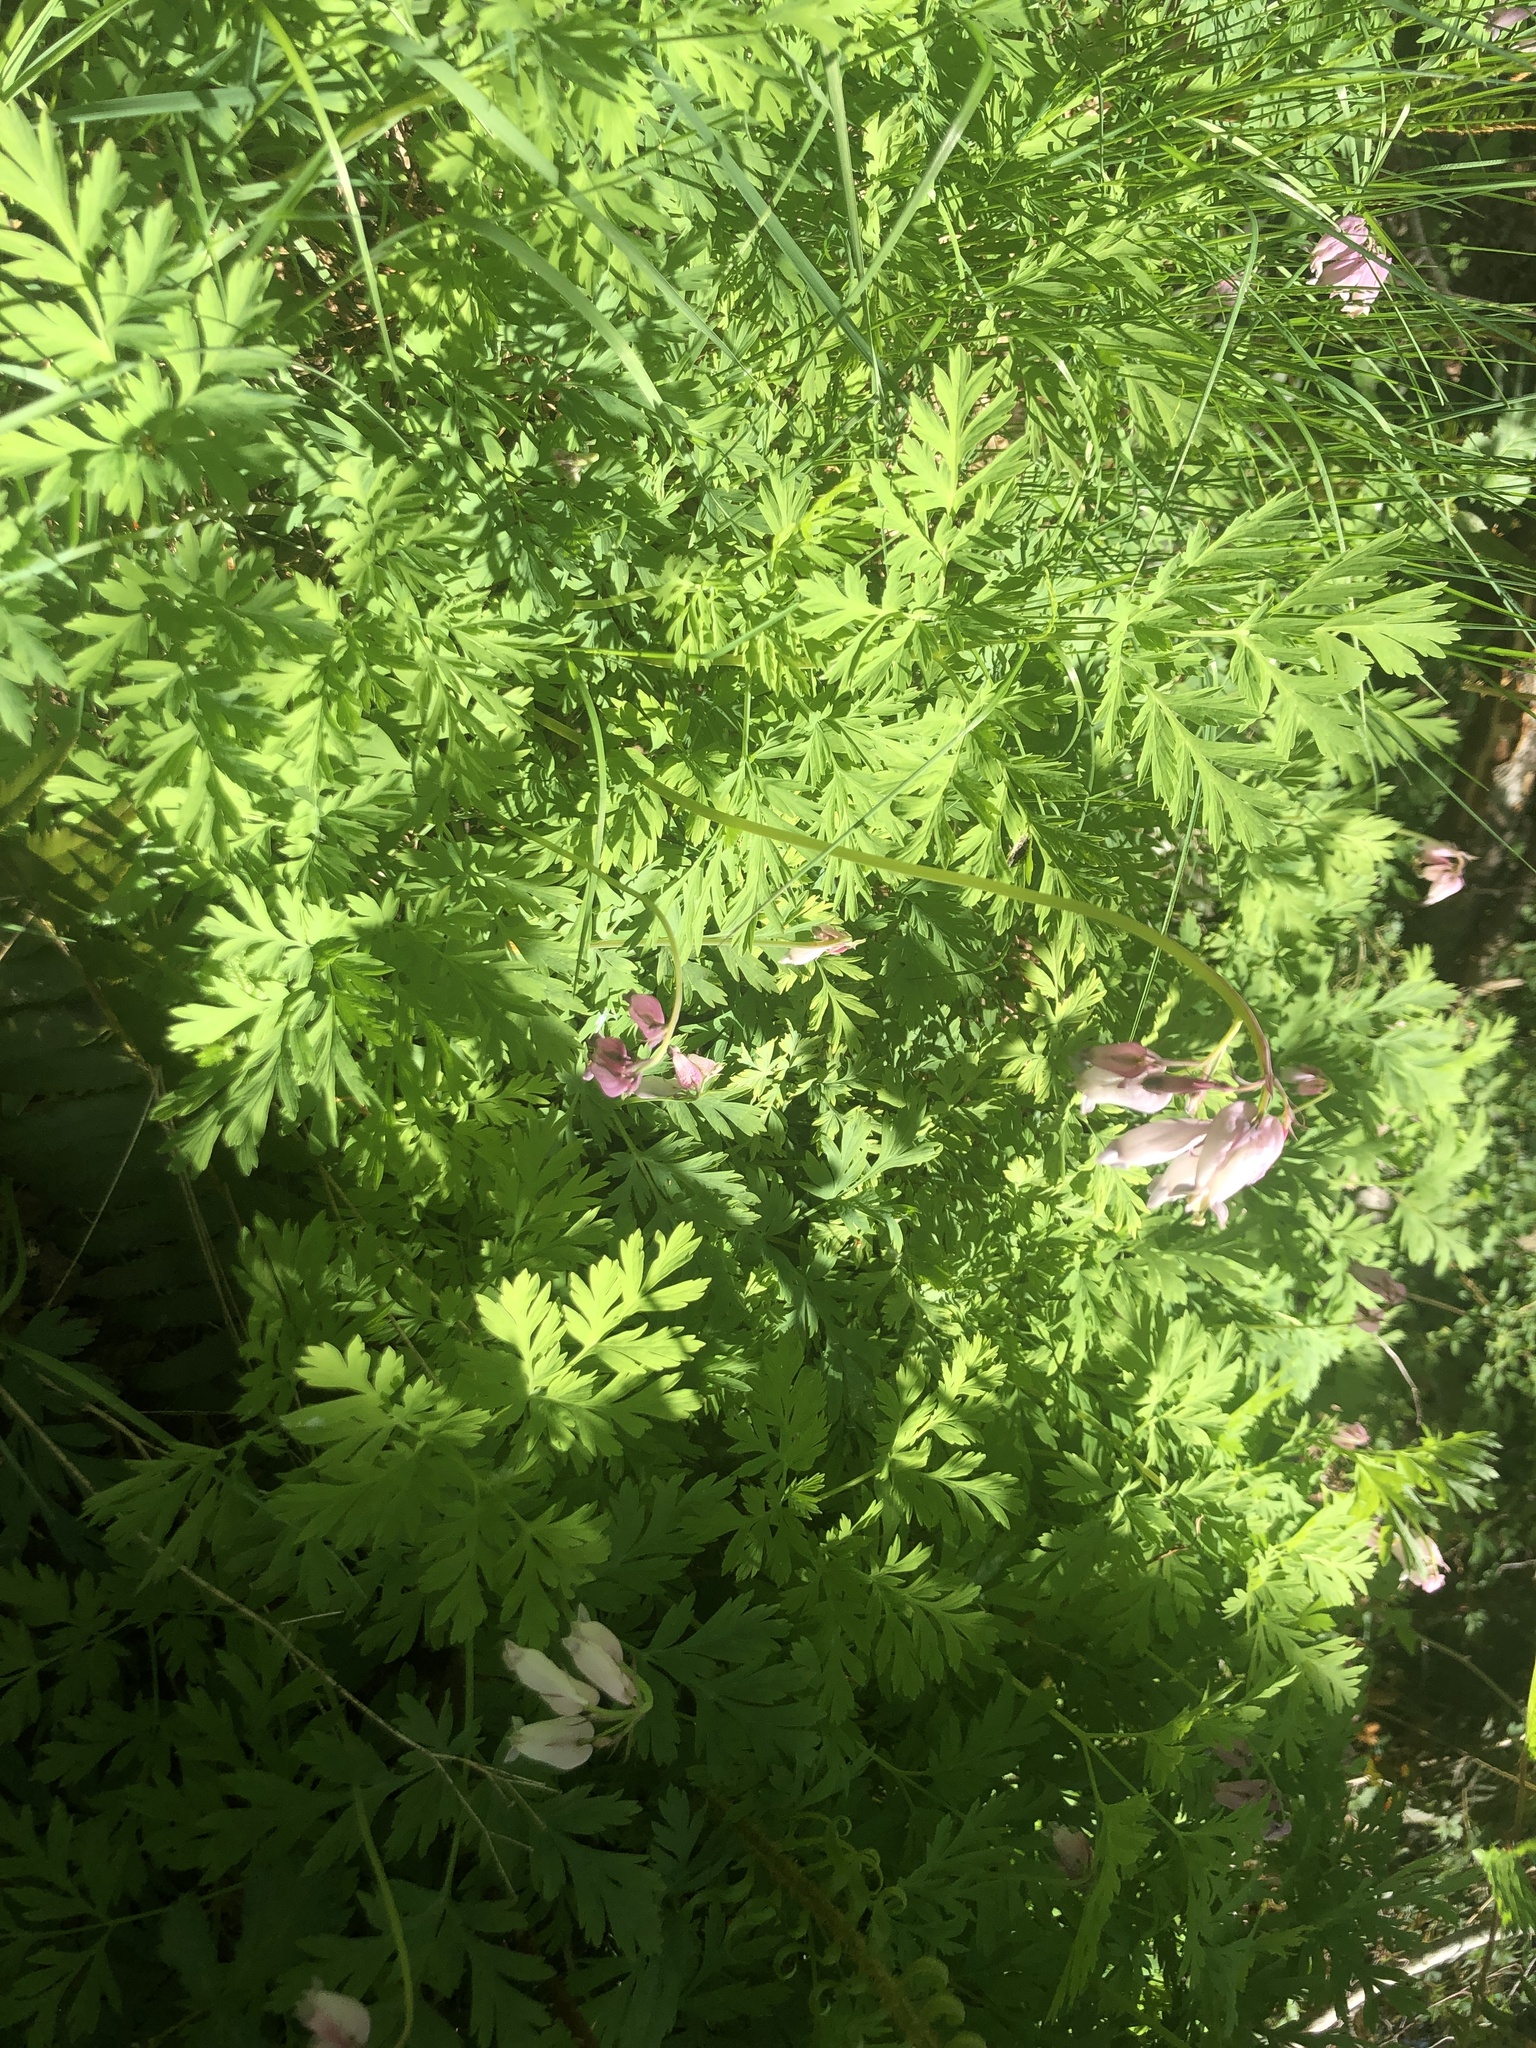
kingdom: Plantae
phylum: Tracheophyta
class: Magnoliopsida
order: Ranunculales
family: Papaveraceae
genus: Dicentra
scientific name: Dicentra formosa
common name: Bleeding-heart
